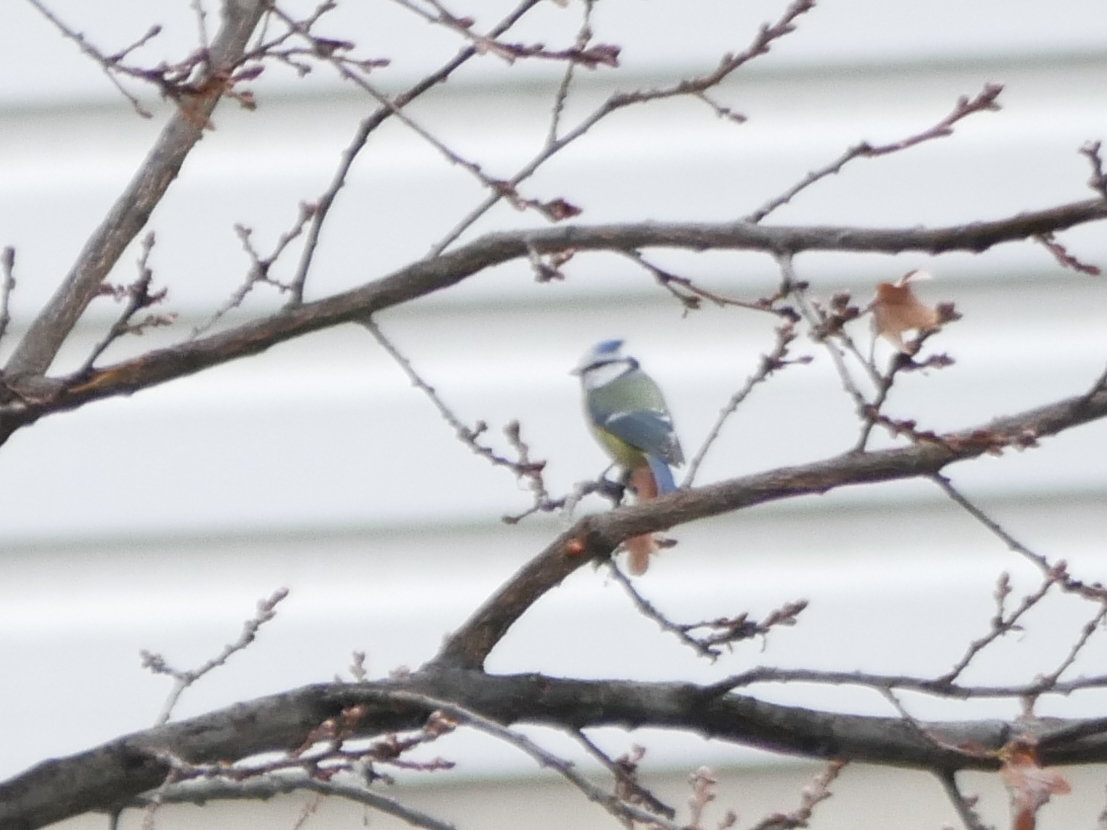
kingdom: Animalia
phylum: Chordata
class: Aves
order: Passeriformes
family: Paridae
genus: Cyanistes
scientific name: Cyanistes caeruleus
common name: Eurasian blue tit
